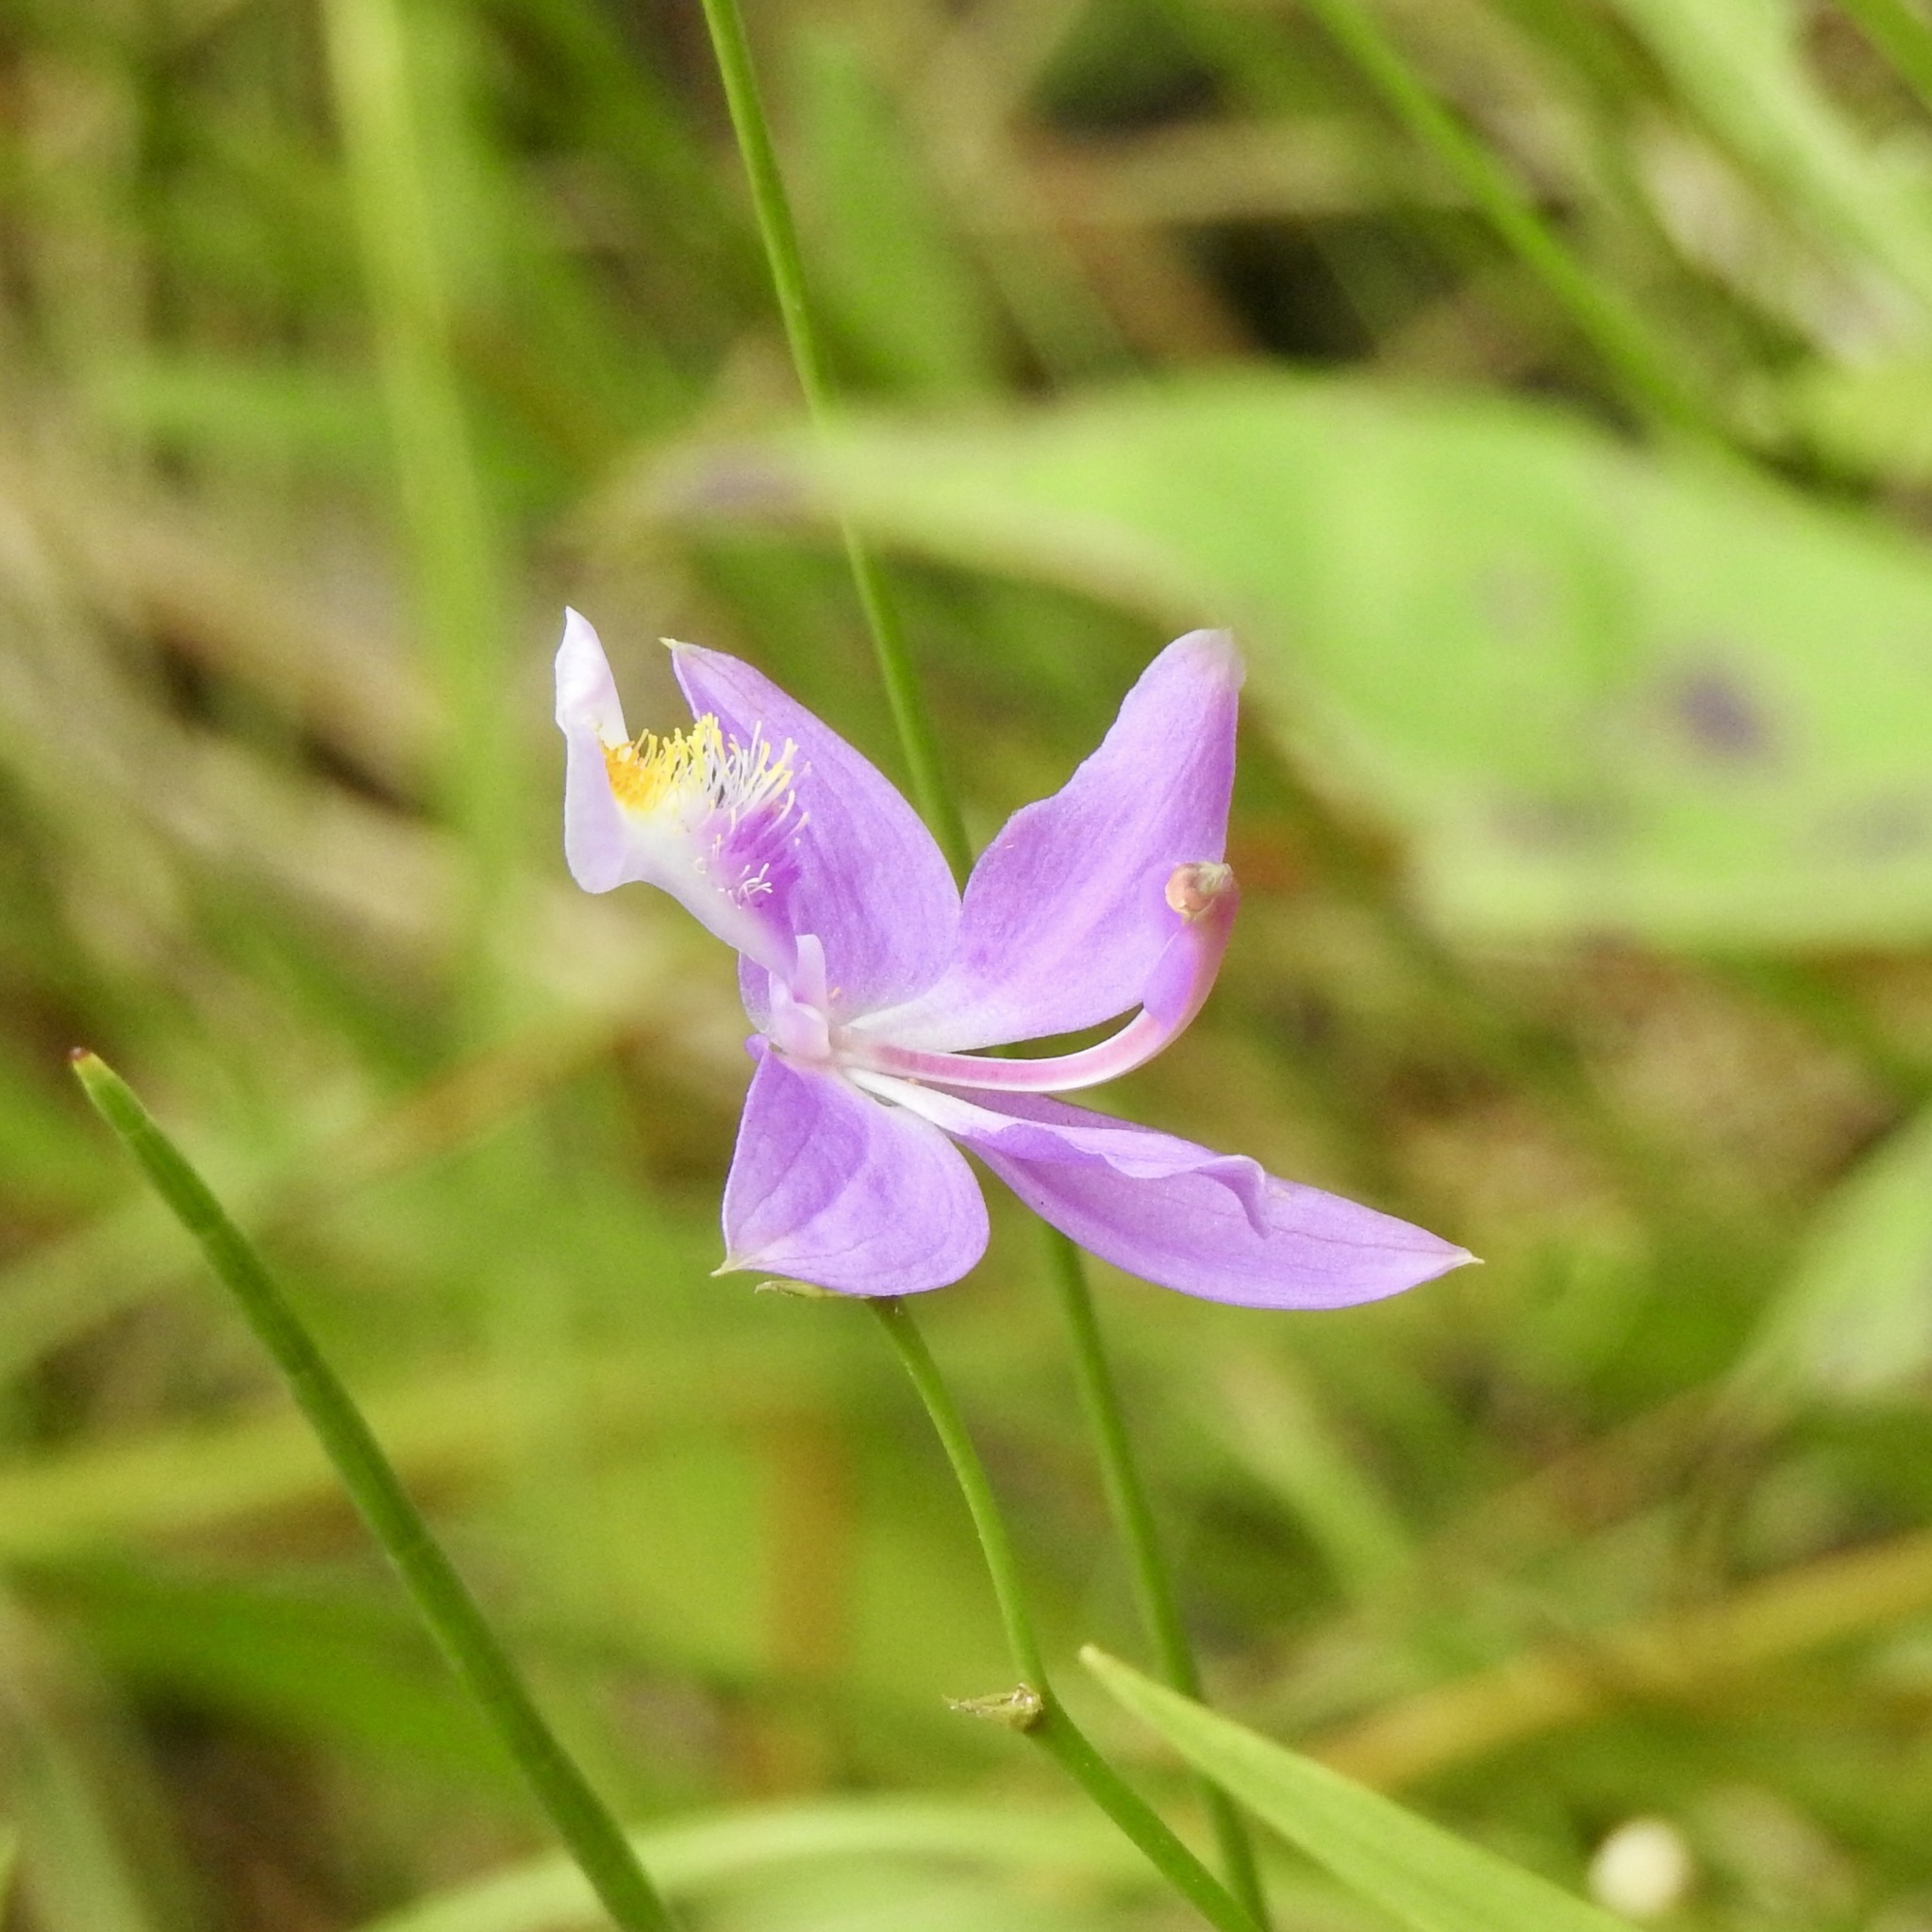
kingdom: Plantae
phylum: Tracheophyta
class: Liliopsida
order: Asparagales
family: Orchidaceae
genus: Calopogon
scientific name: Calopogon tuberosus
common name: Grass-pink
